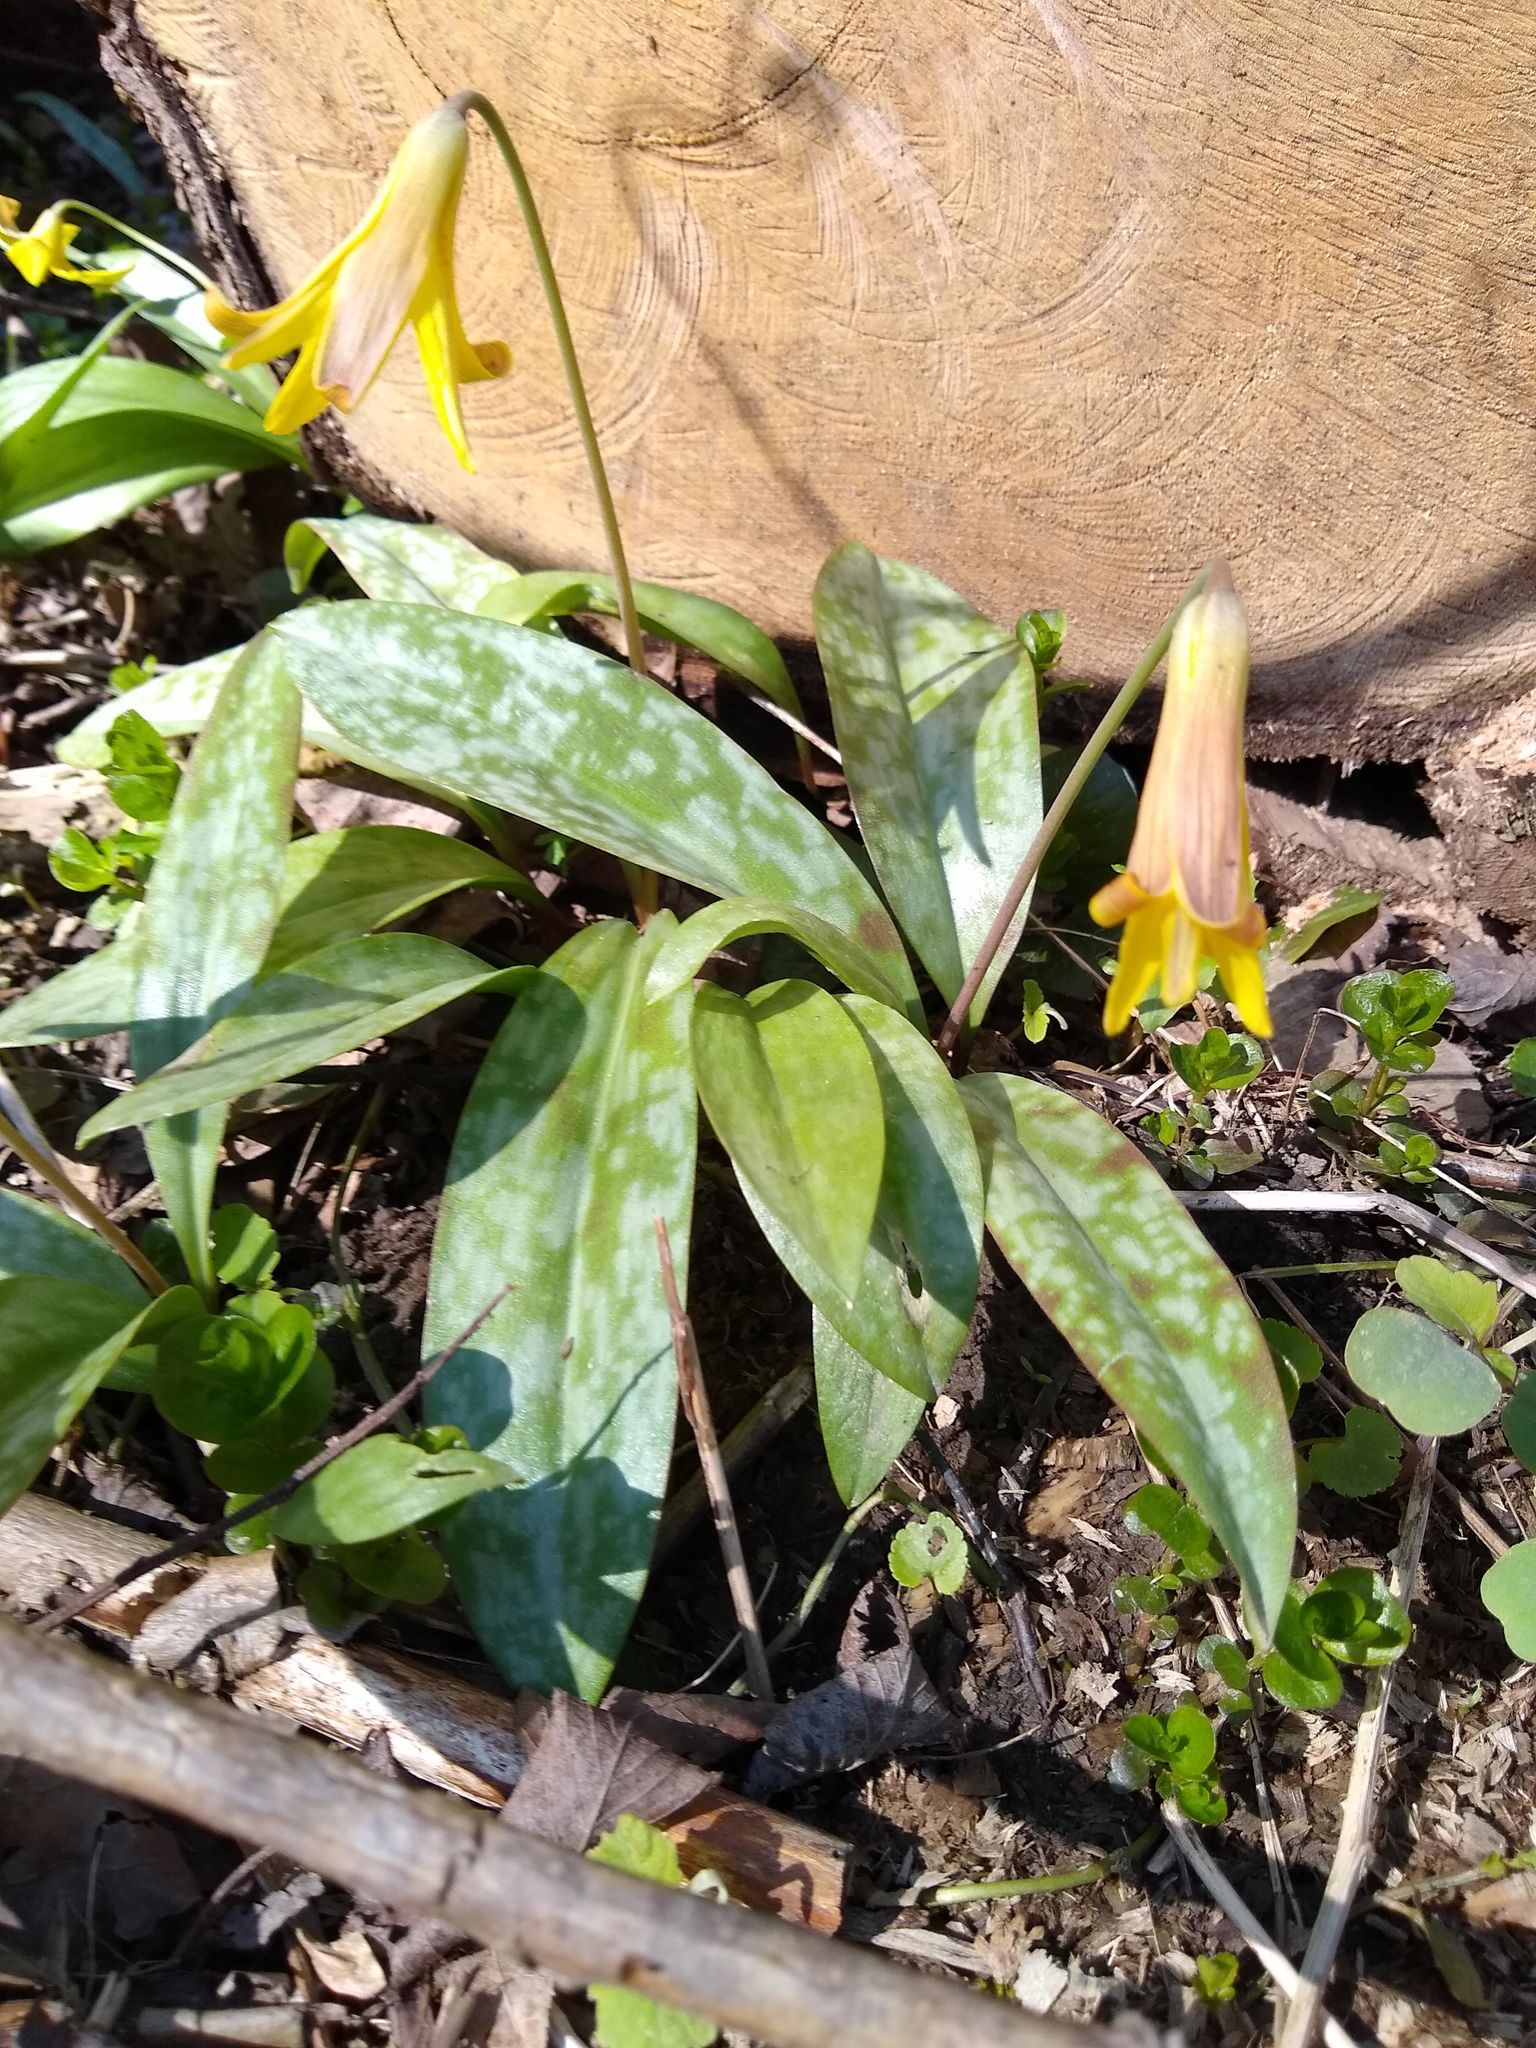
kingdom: Plantae
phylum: Tracheophyta
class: Liliopsida
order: Liliales
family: Liliaceae
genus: Erythronium
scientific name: Erythronium americanum
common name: Yellow adder's-tongue
